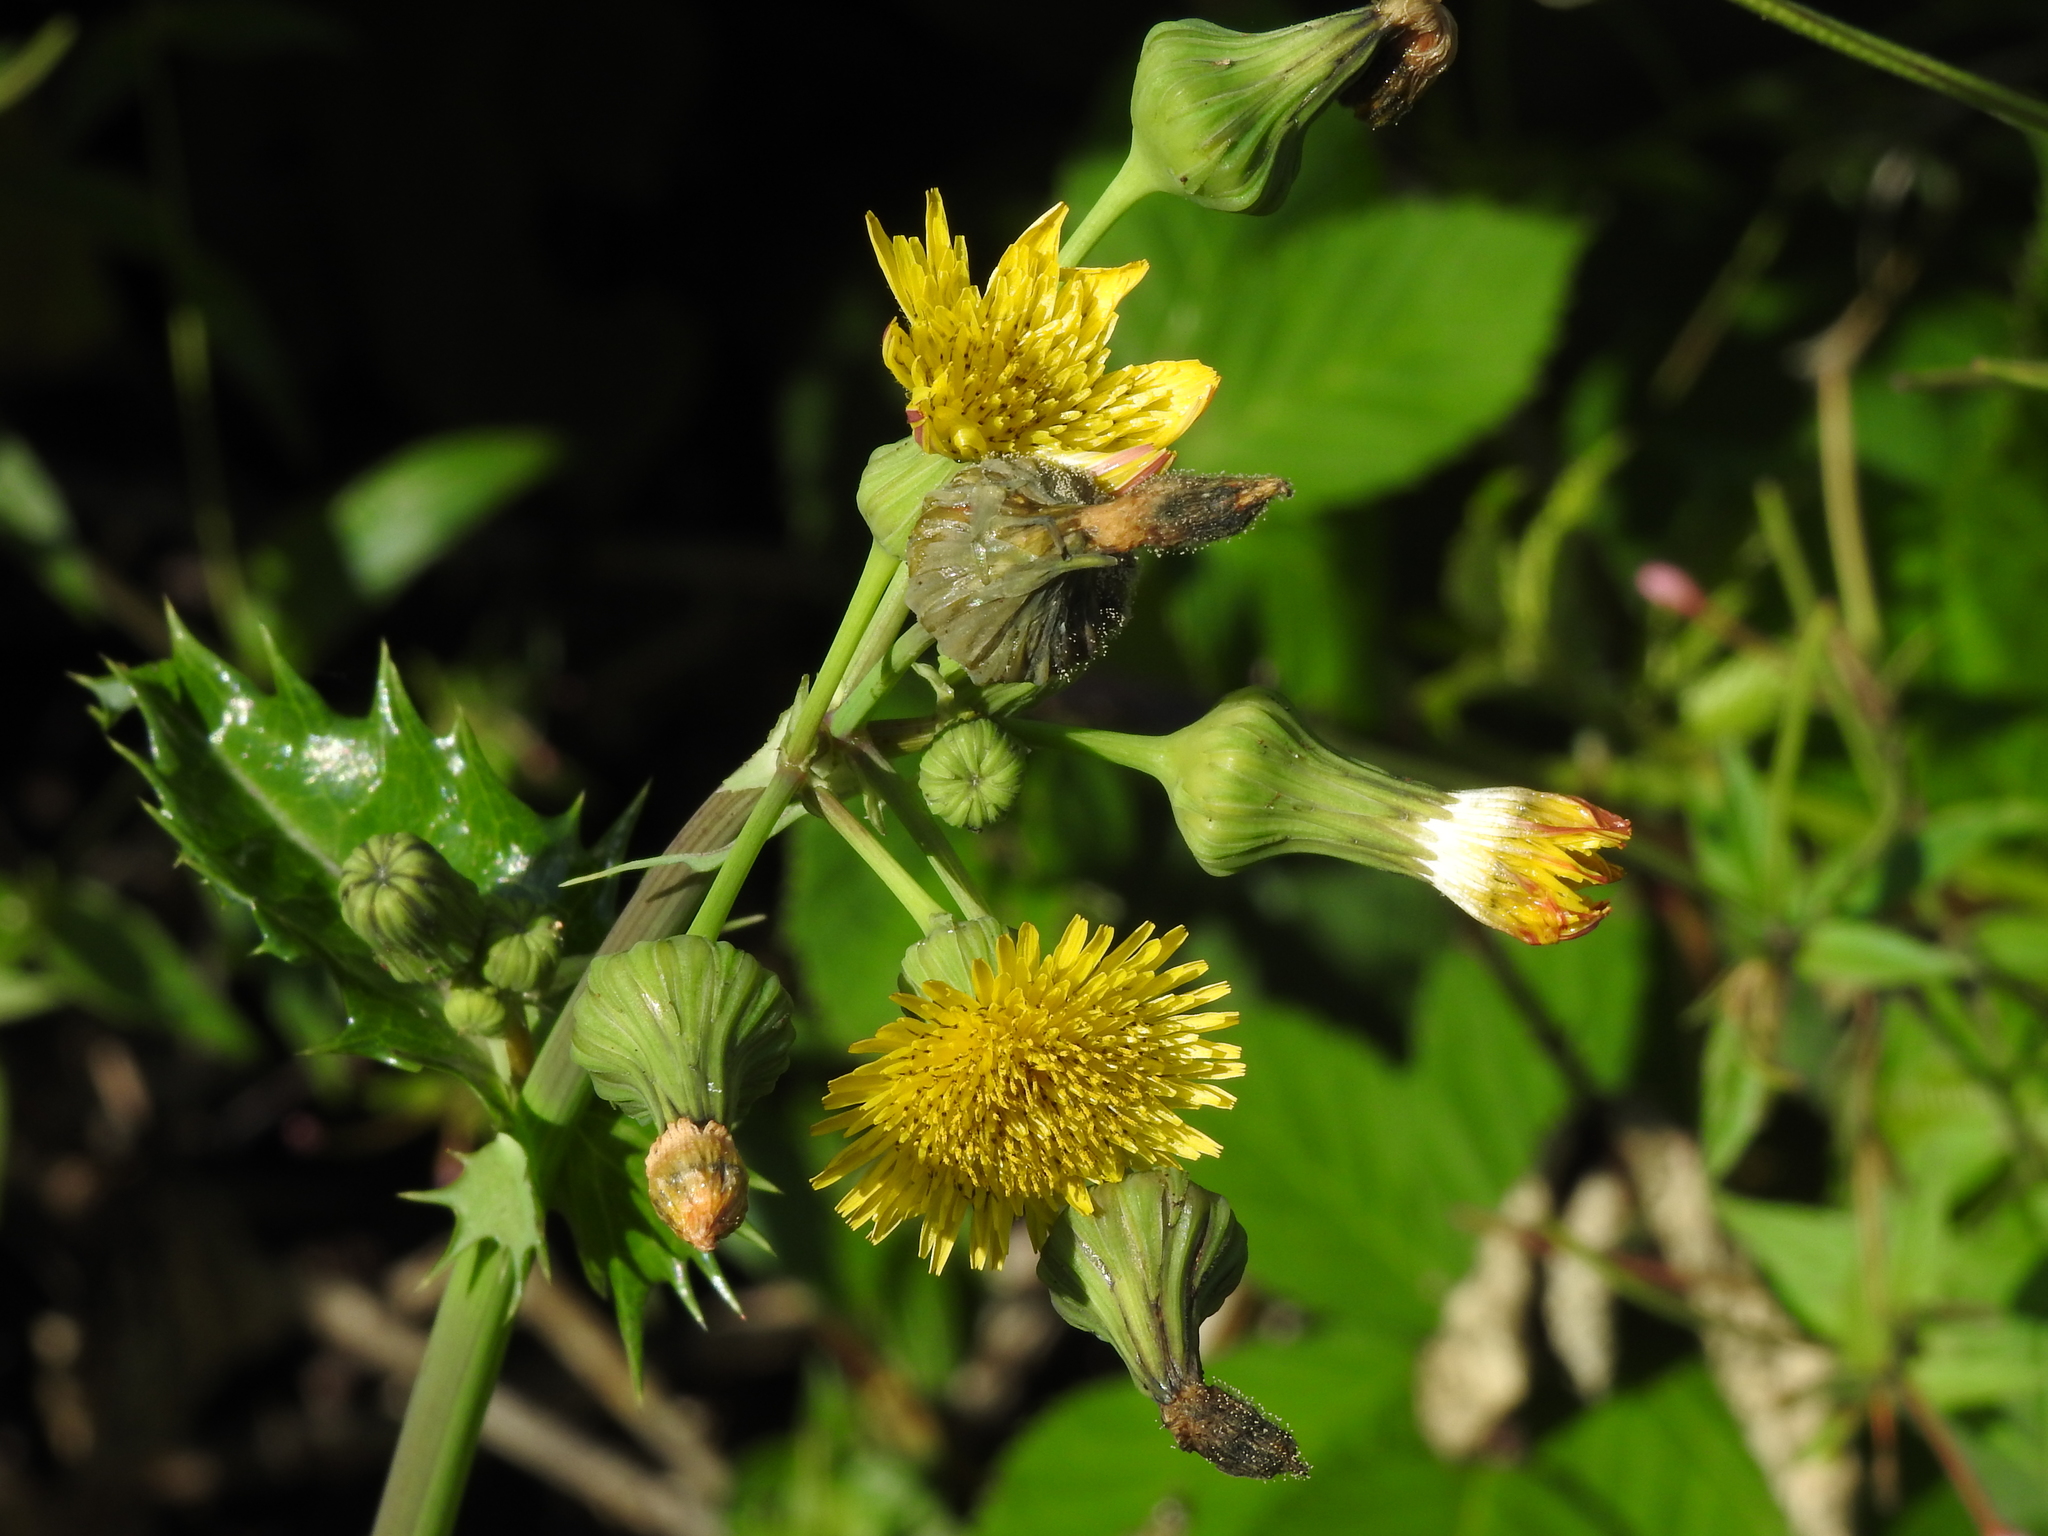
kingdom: Plantae
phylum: Tracheophyta
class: Magnoliopsida
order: Asterales
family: Asteraceae
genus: Sonchus
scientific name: Sonchus asper
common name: Prickly sow-thistle
